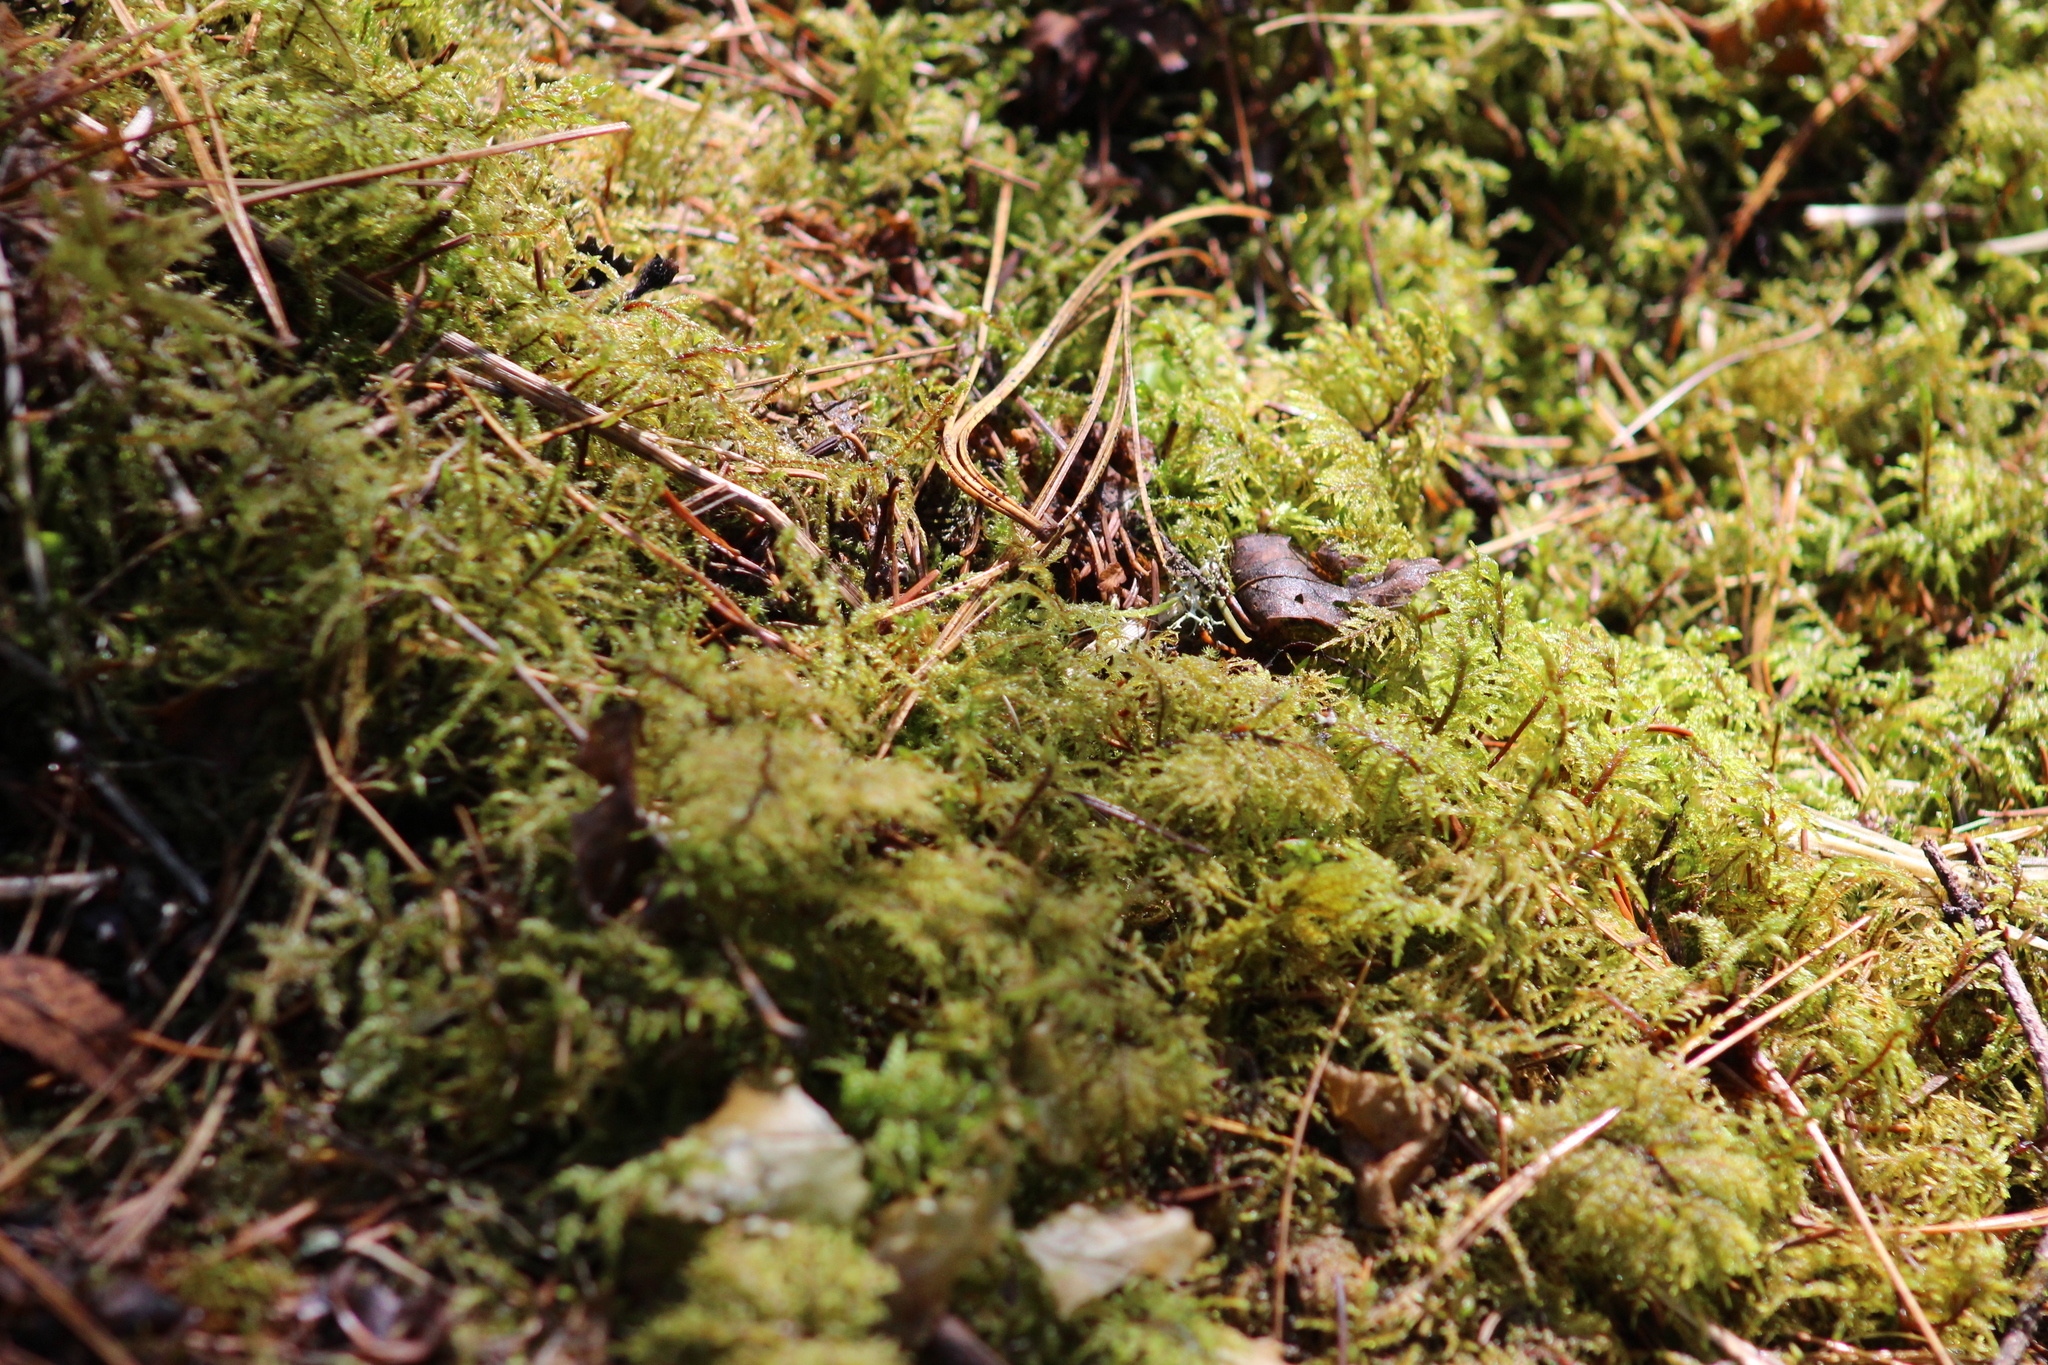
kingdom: Plantae
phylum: Bryophyta
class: Bryopsida
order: Hypnales
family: Hylocomiaceae
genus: Hylocomium
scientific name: Hylocomium splendens
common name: Stairstep moss
